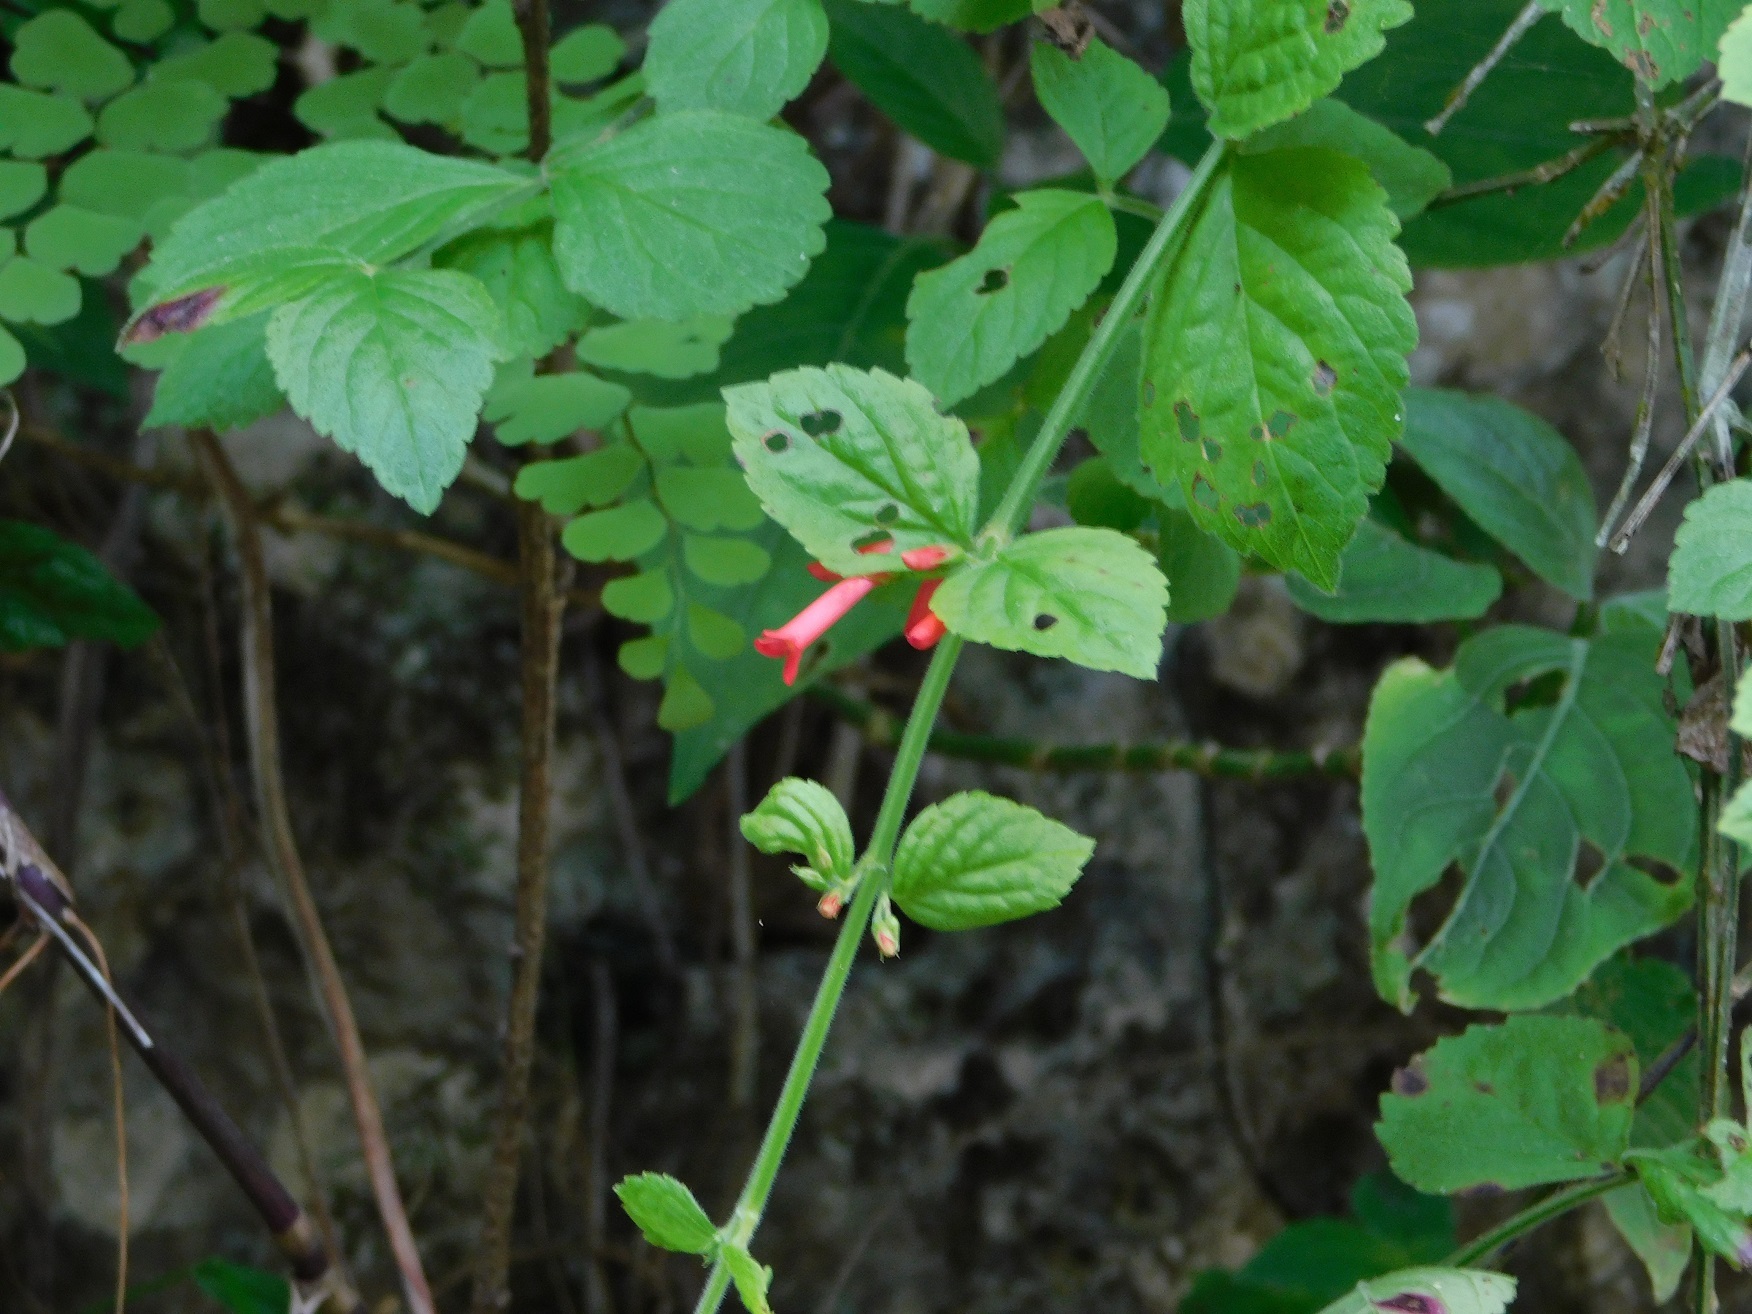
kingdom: Plantae
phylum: Tracheophyta
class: Magnoliopsida
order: Lamiales
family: Plantaginaceae
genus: Russelia
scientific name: Russelia sarmentosa
